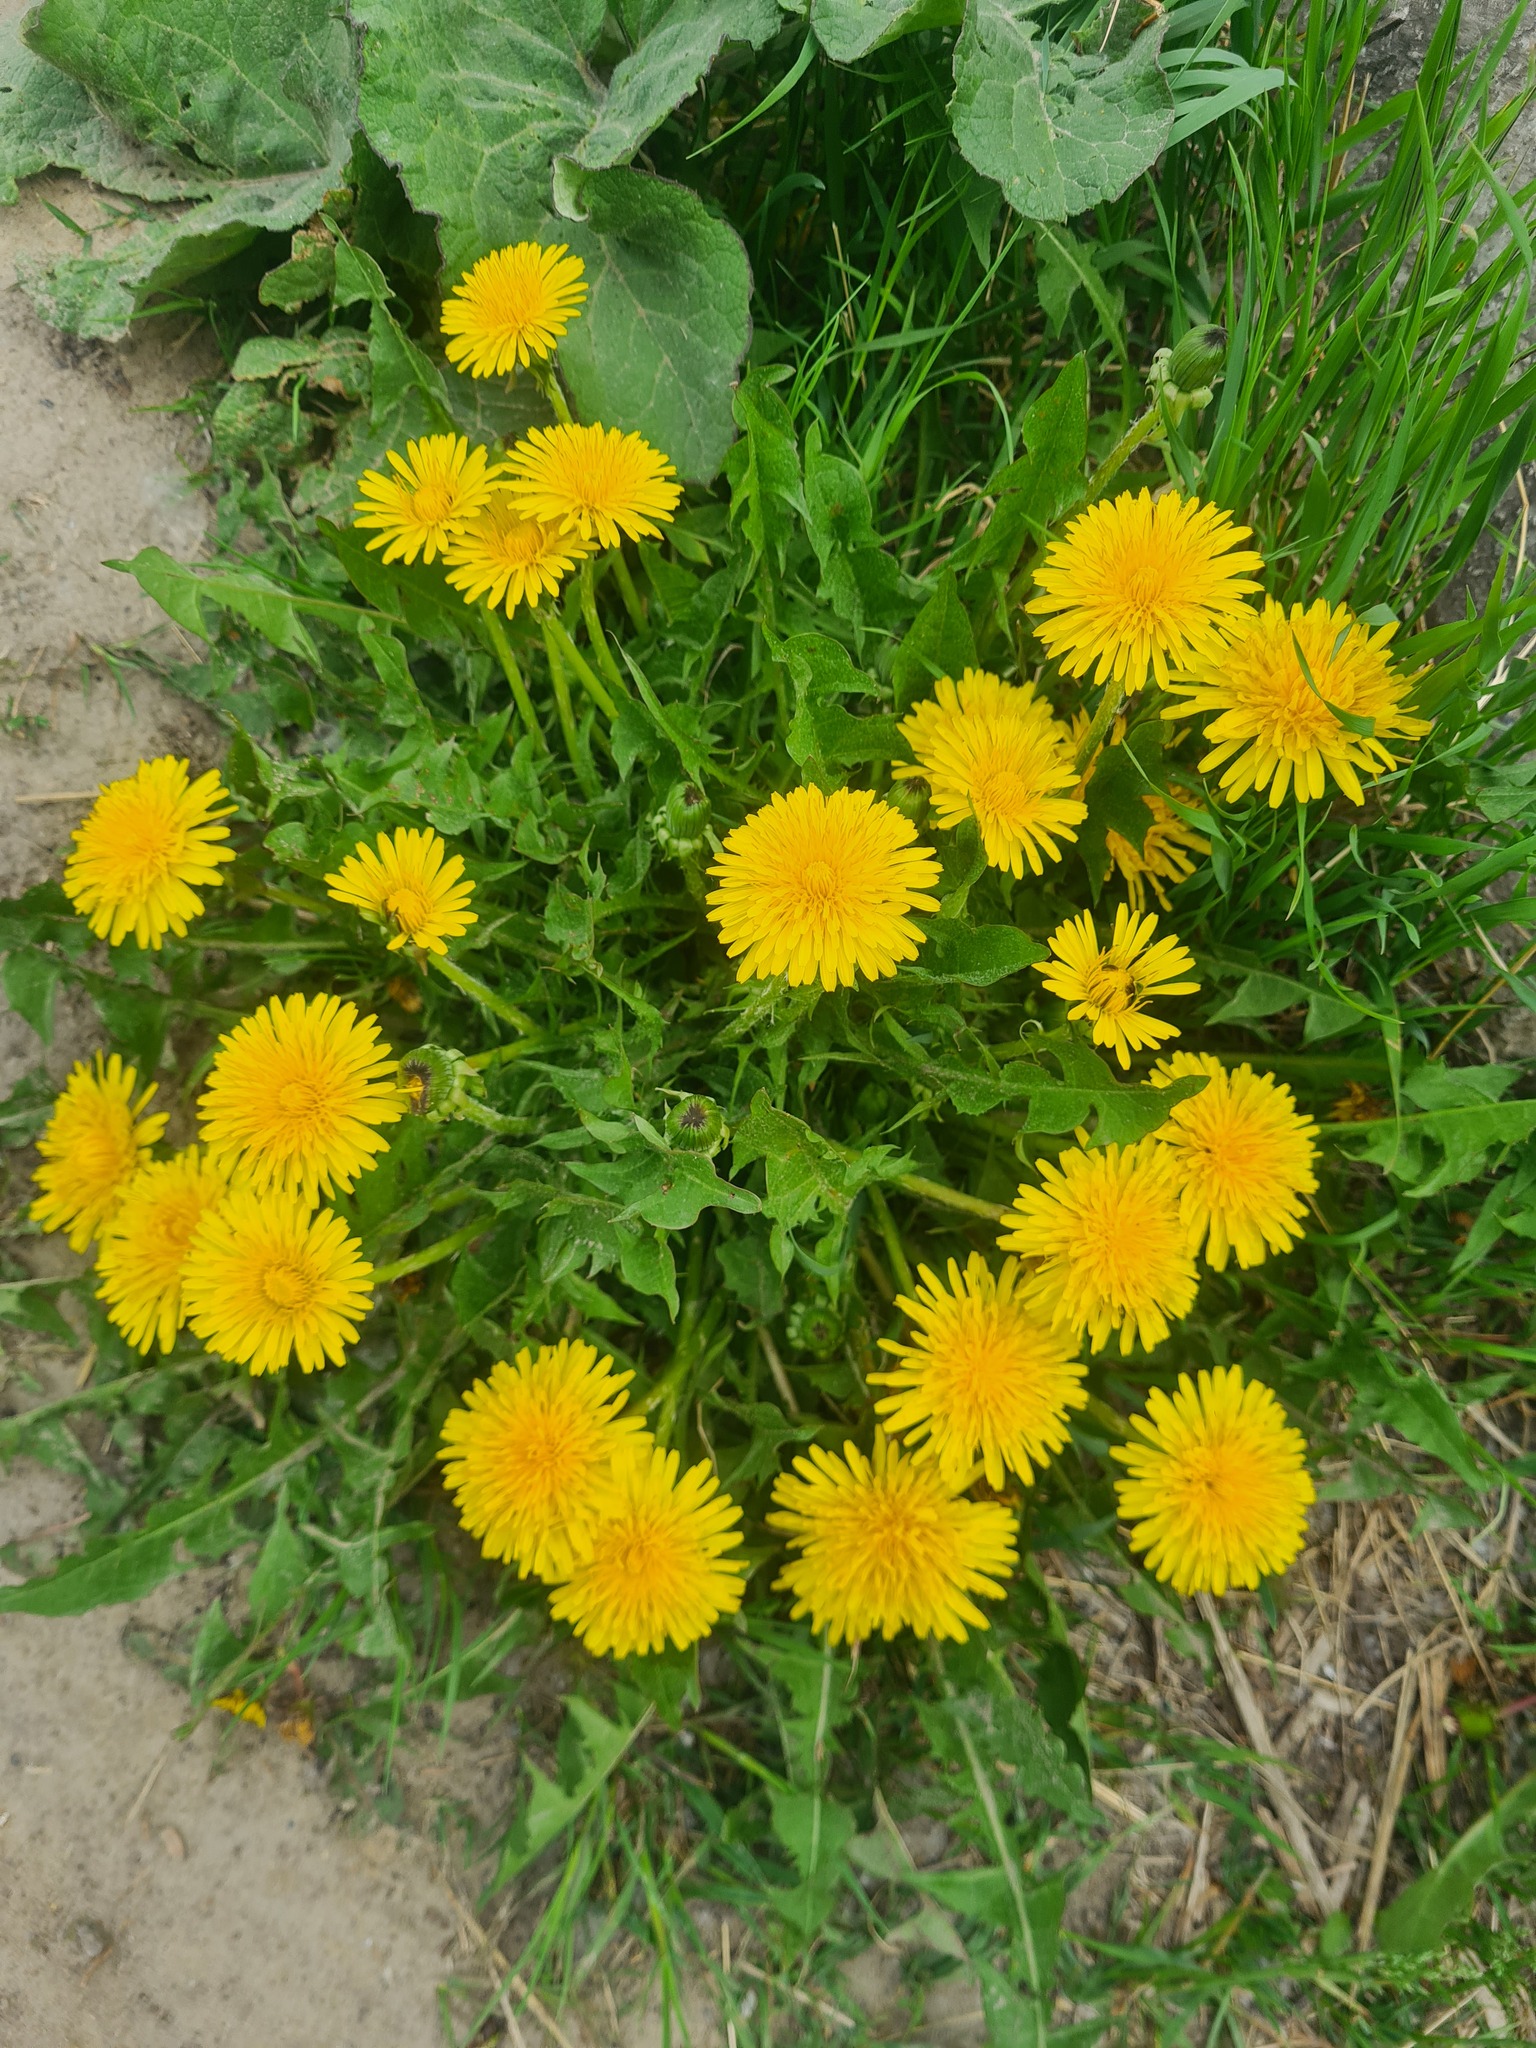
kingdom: Plantae
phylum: Tracheophyta
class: Magnoliopsida
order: Asterales
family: Asteraceae
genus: Taraxacum
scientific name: Taraxacum officinale
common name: Common dandelion
